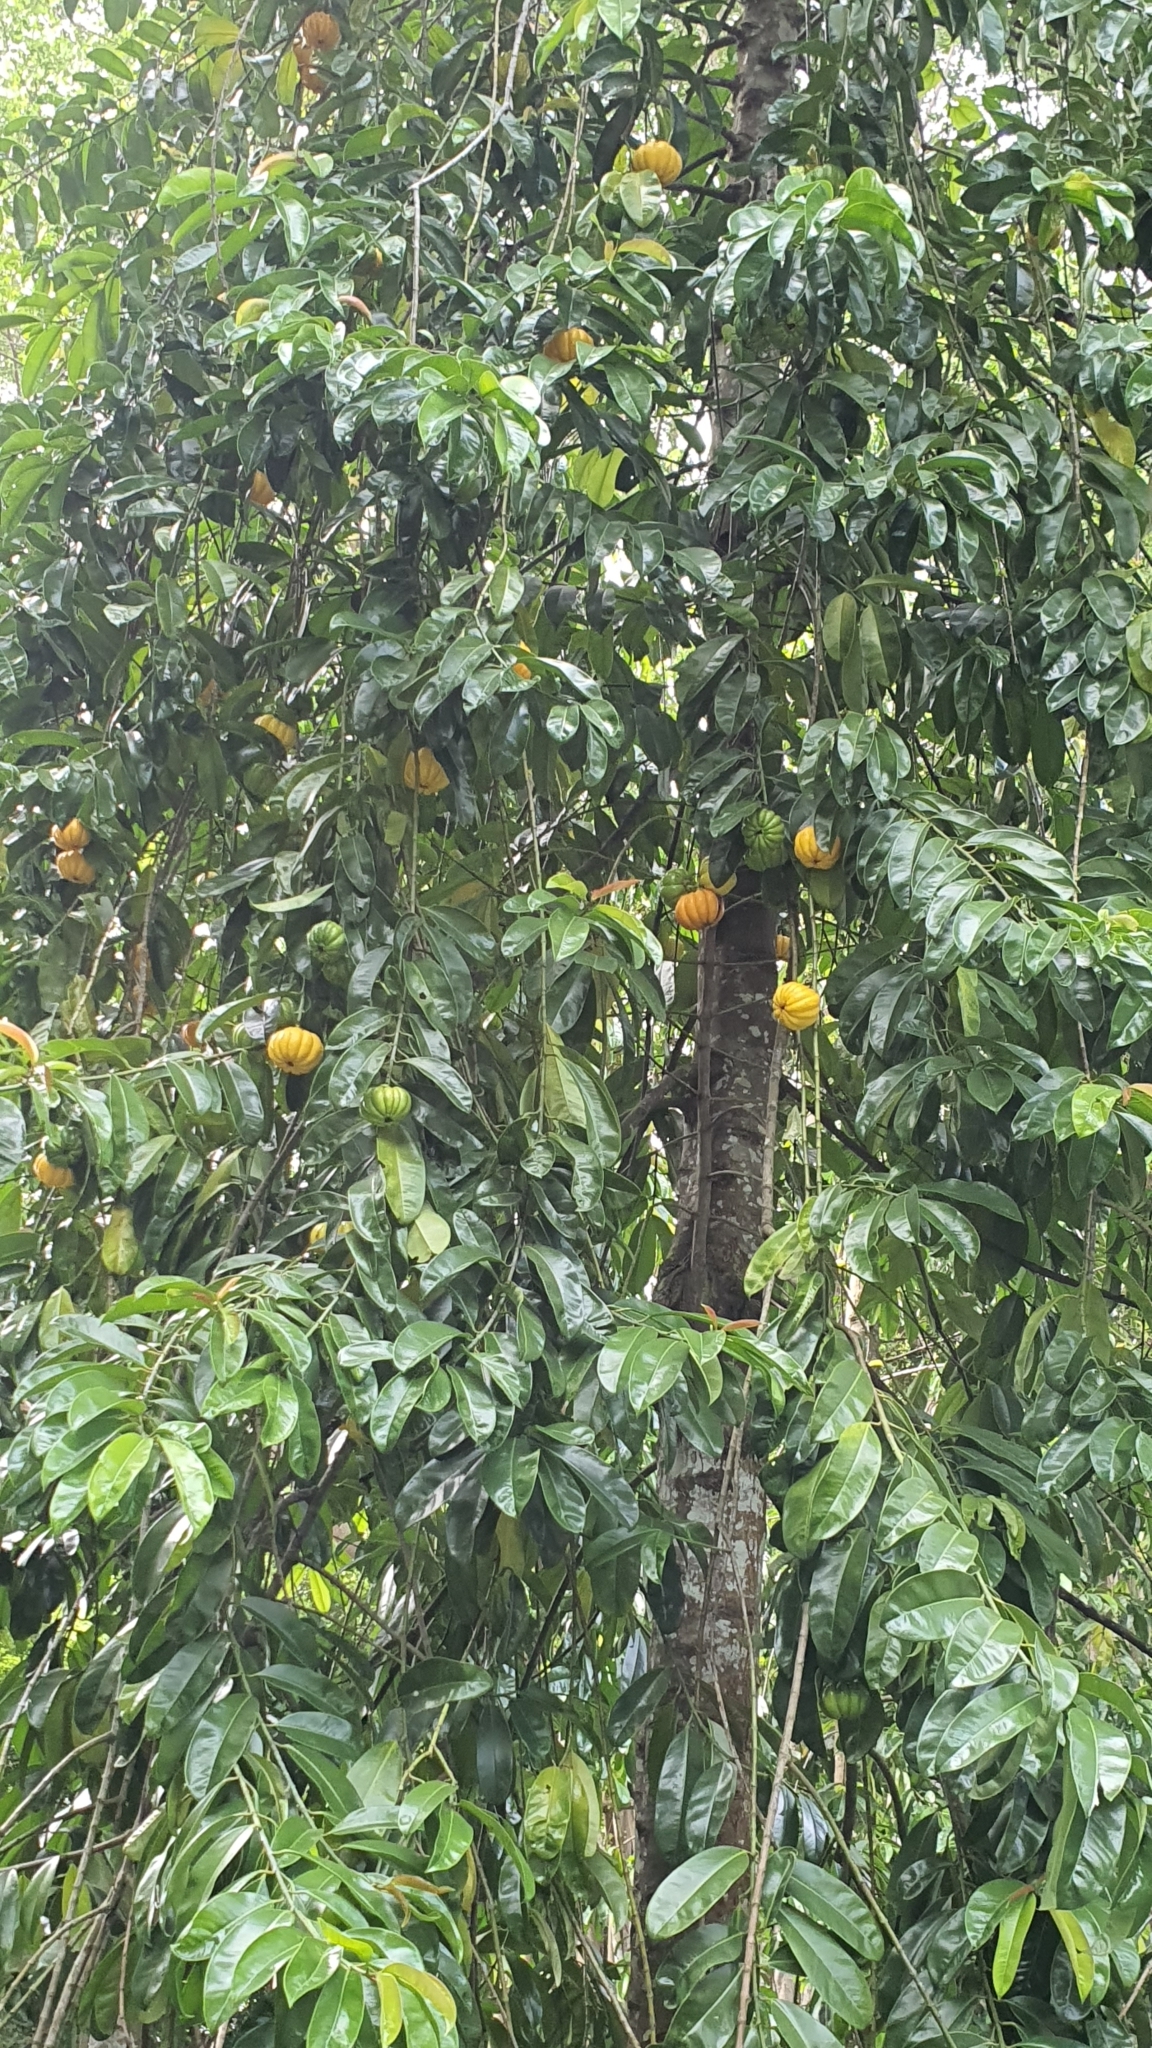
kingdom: Plantae
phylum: Tracheophyta
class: Magnoliopsida
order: Malpighiales
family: Clusiaceae
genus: Garcinia
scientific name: Garcinia atroviridis
